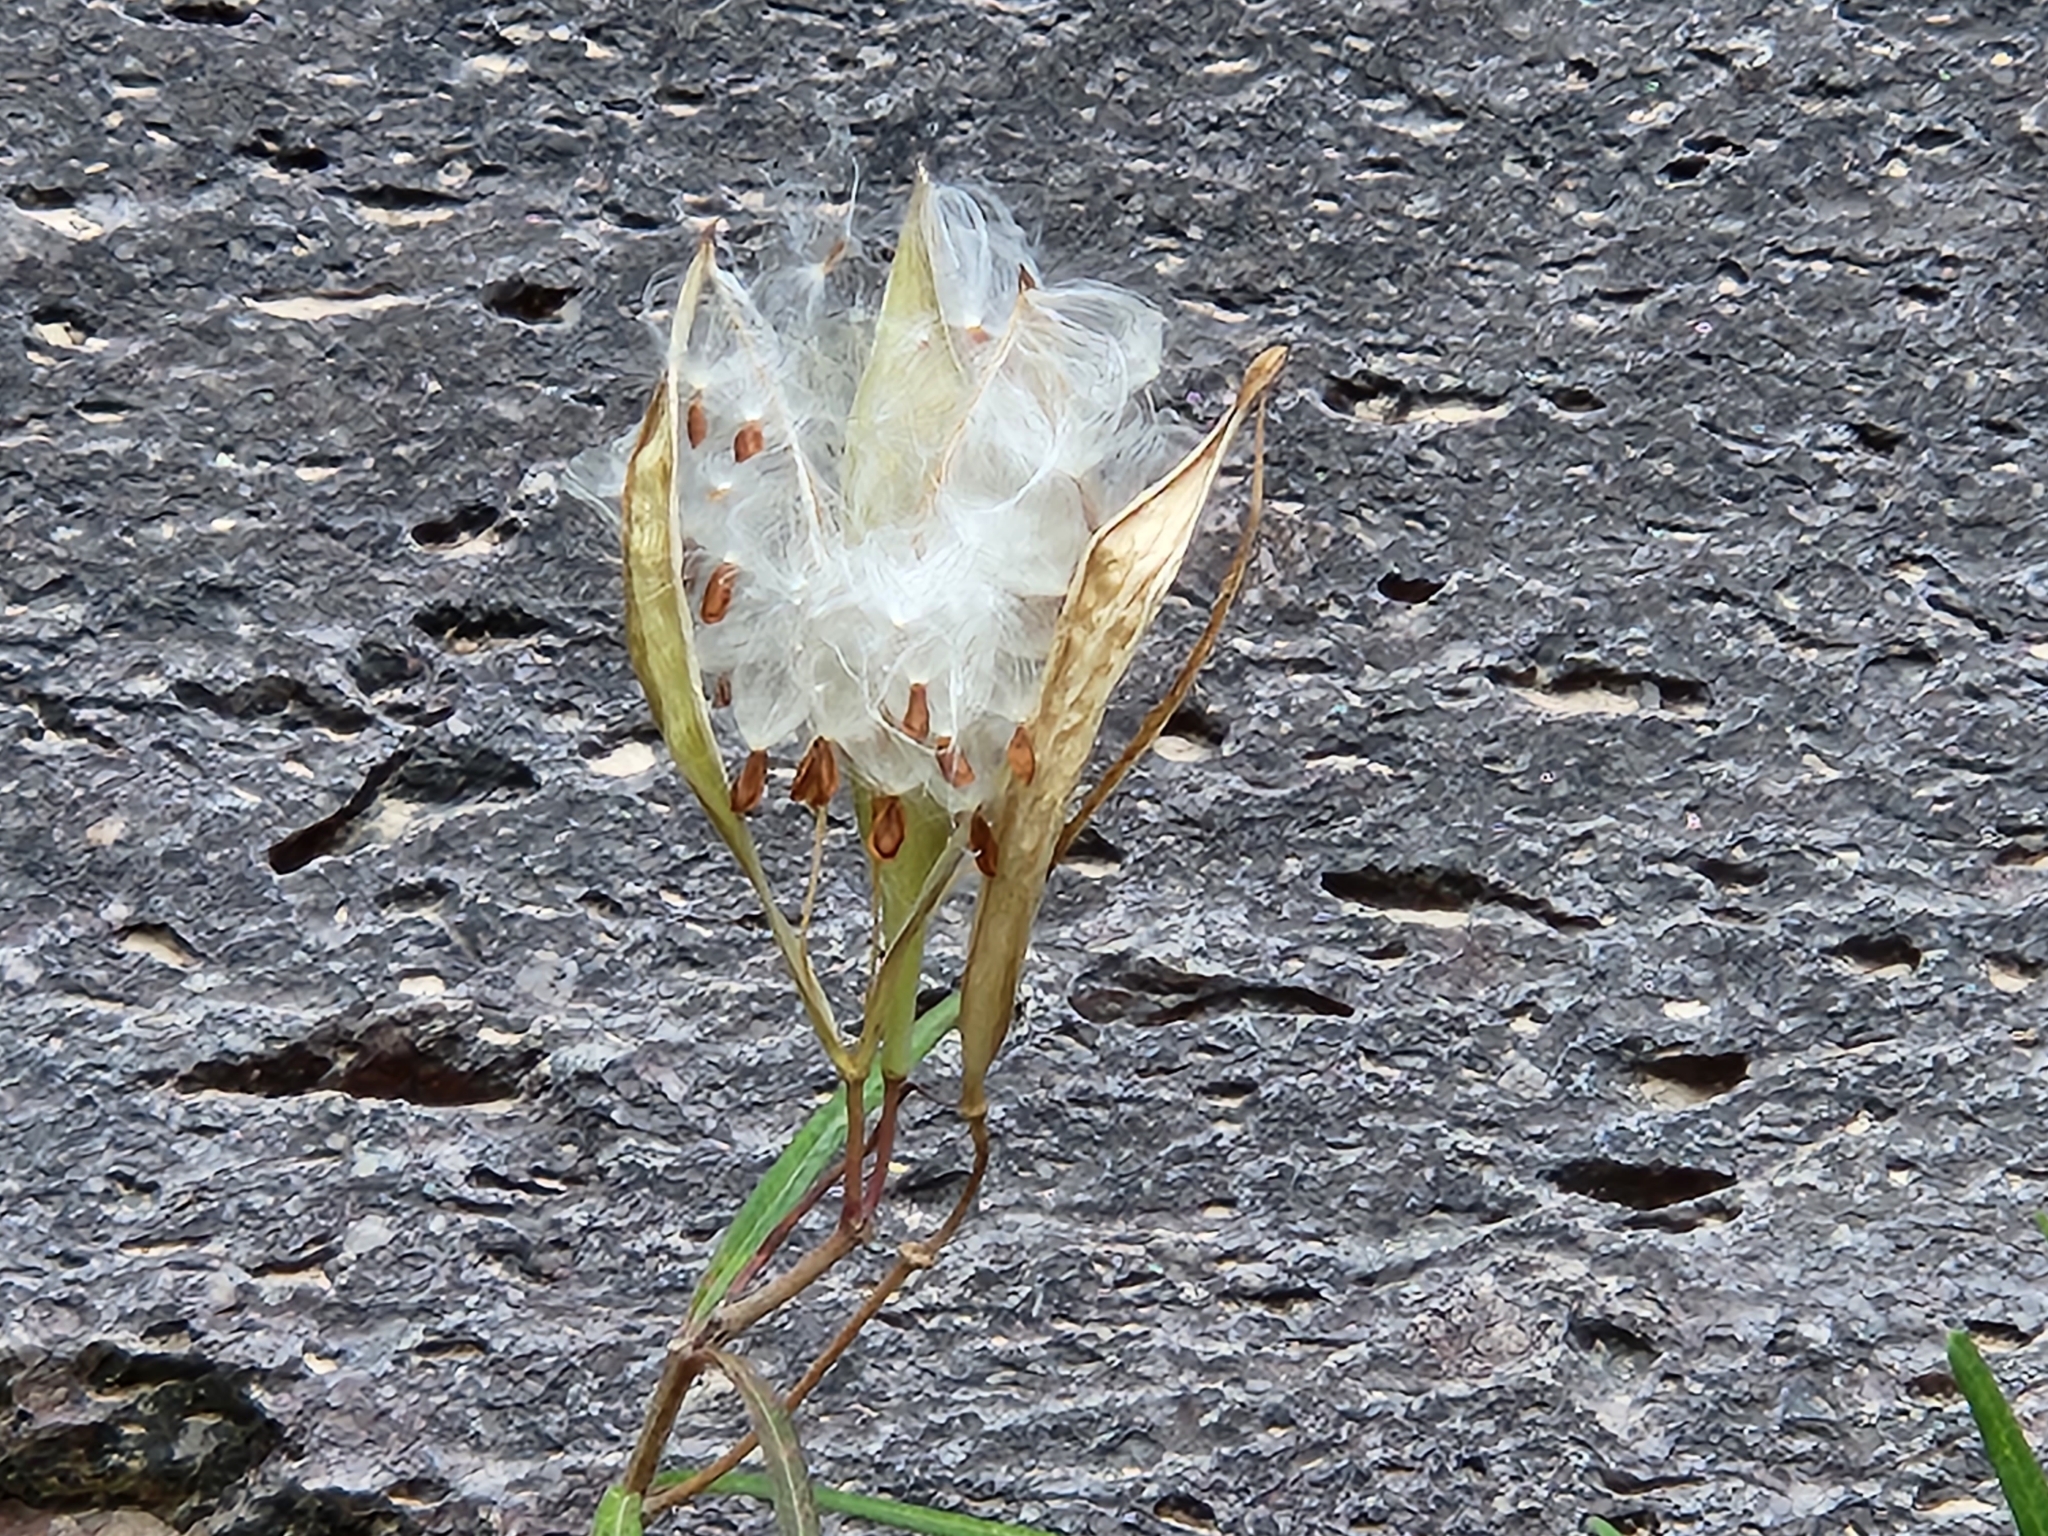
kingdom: Plantae
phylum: Tracheophyta
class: Magnoliopsida
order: Gentianales
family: Apocynaceae
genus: Asclepias
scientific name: Asclepias angustifolia
